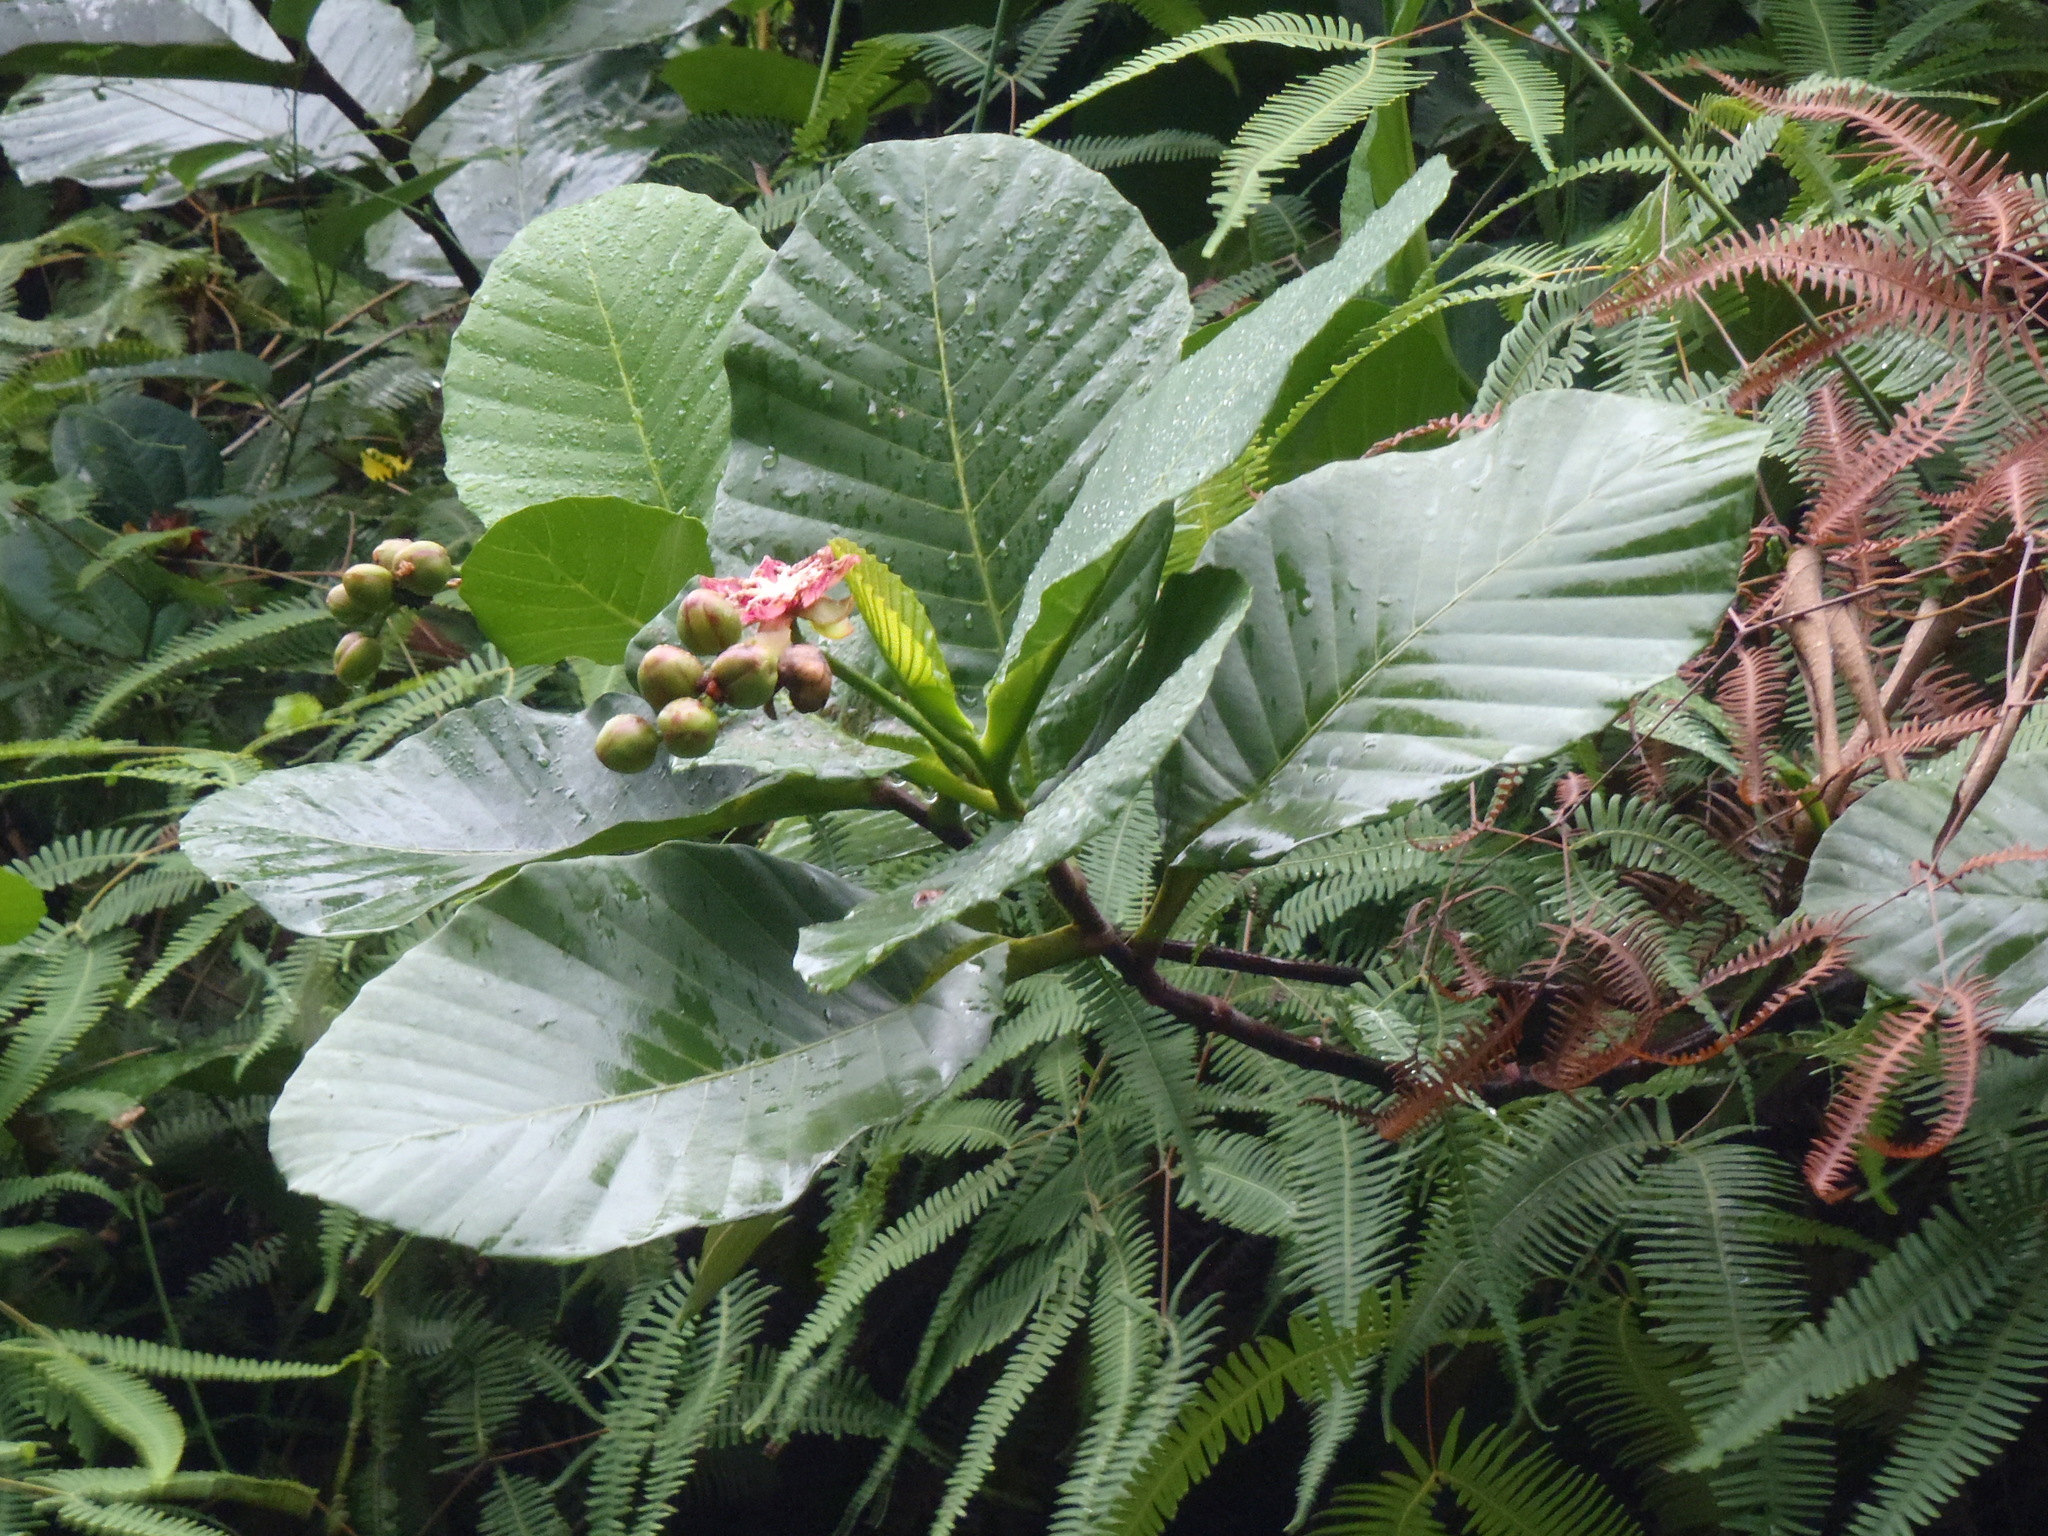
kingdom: Plantae
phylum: Tracheophyta
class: Magnoliopsida
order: Dilleniales
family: Dilleniaceae
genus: Dillenia
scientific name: Dillenia suffruticosa
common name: Shrubby dillenia
